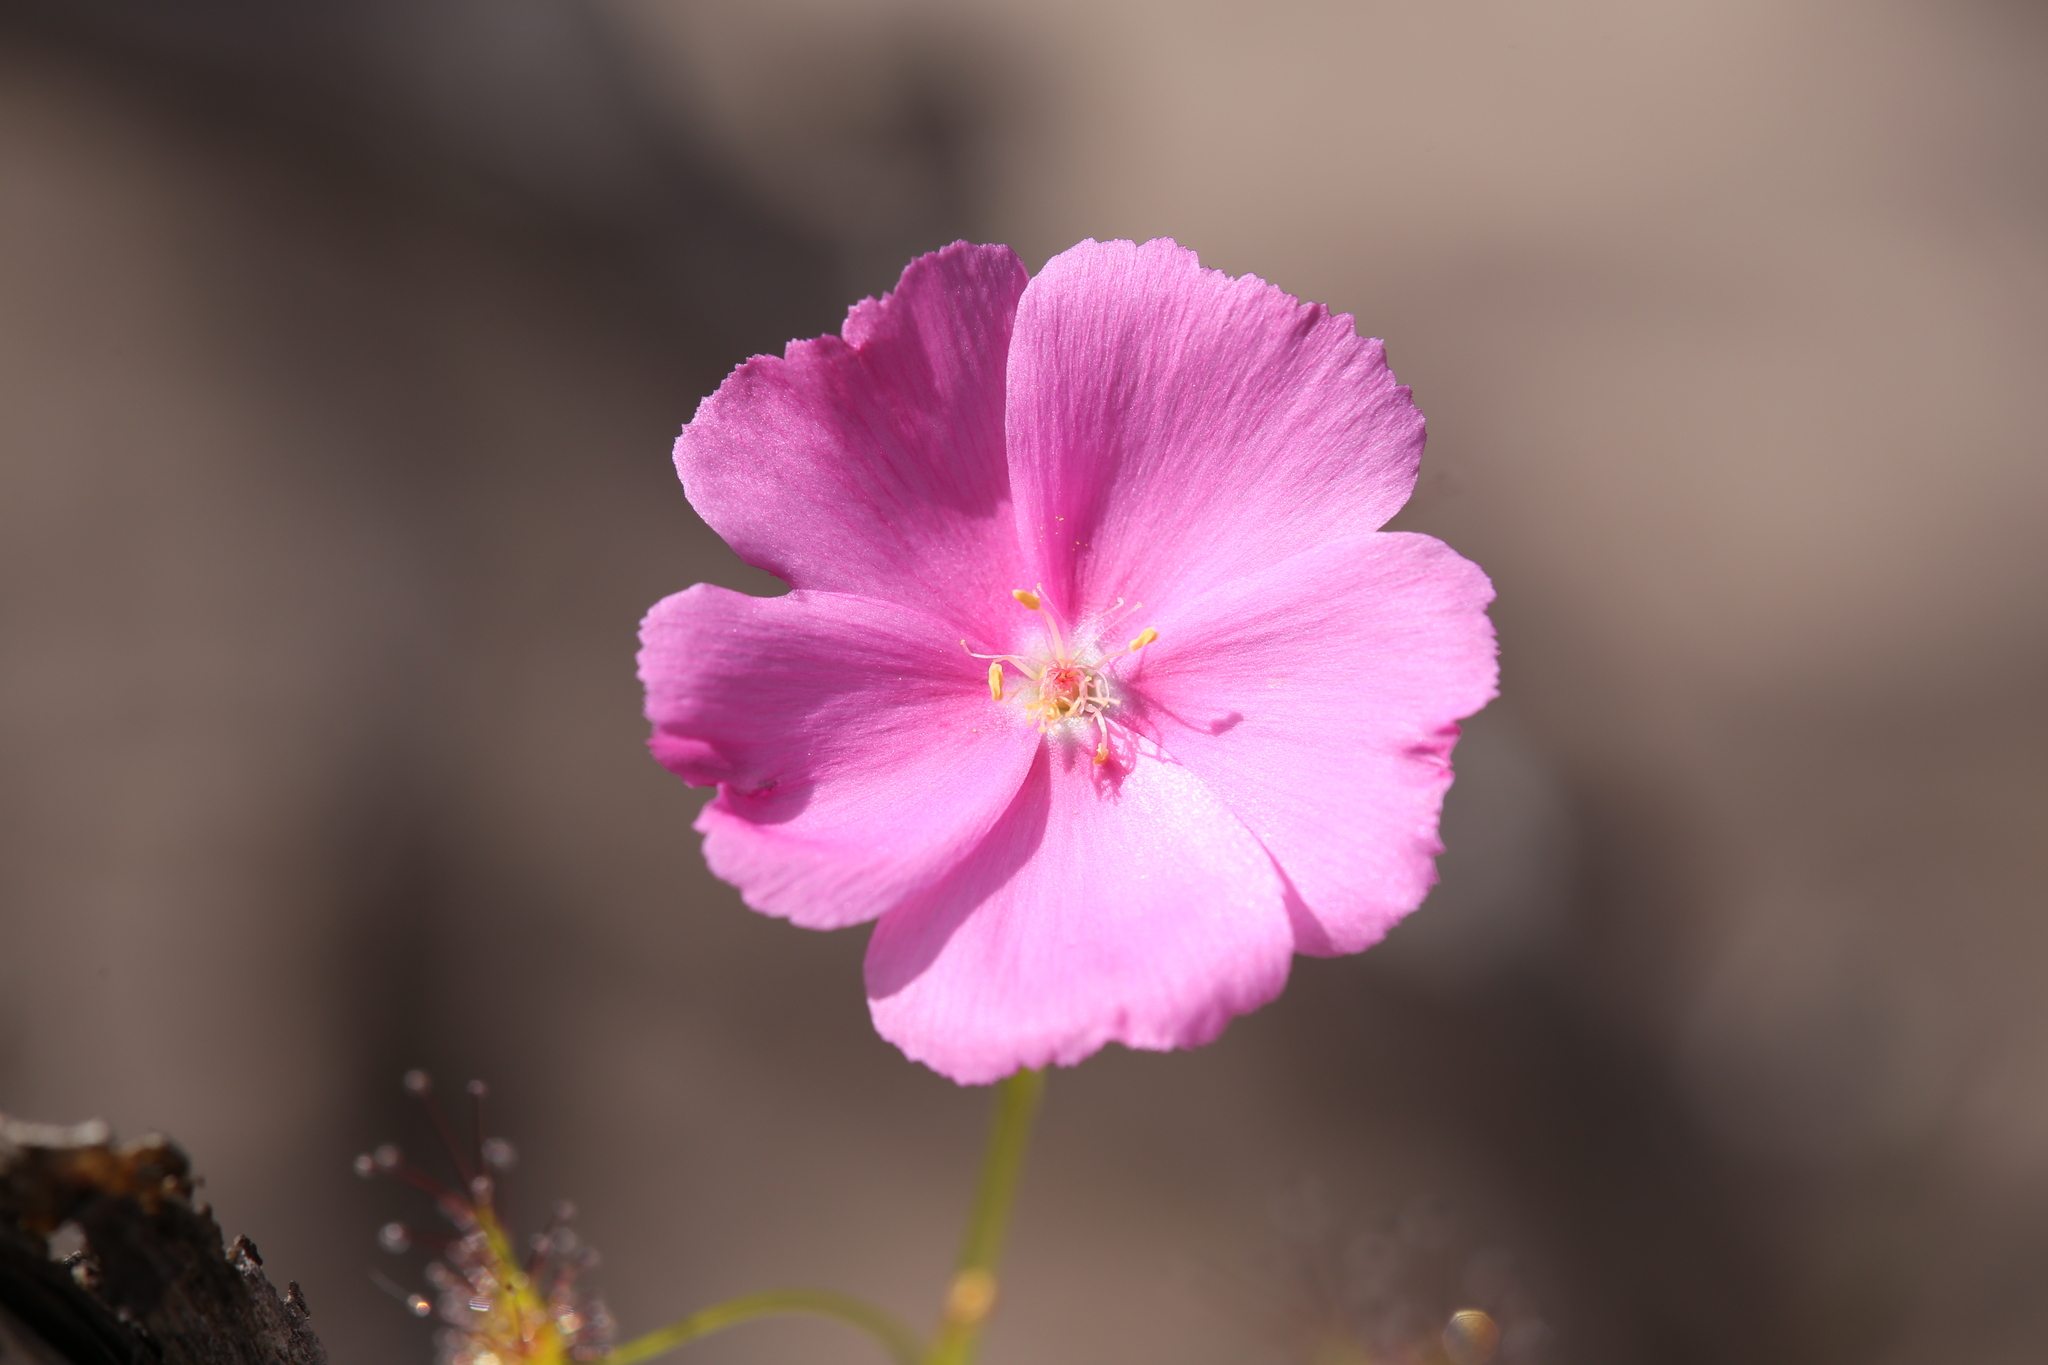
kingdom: Plantae
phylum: Tracheophyta
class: Magnoliopsida
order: Caryophyllales
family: Droseraceae
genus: Drosera
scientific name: Drosera neesii
